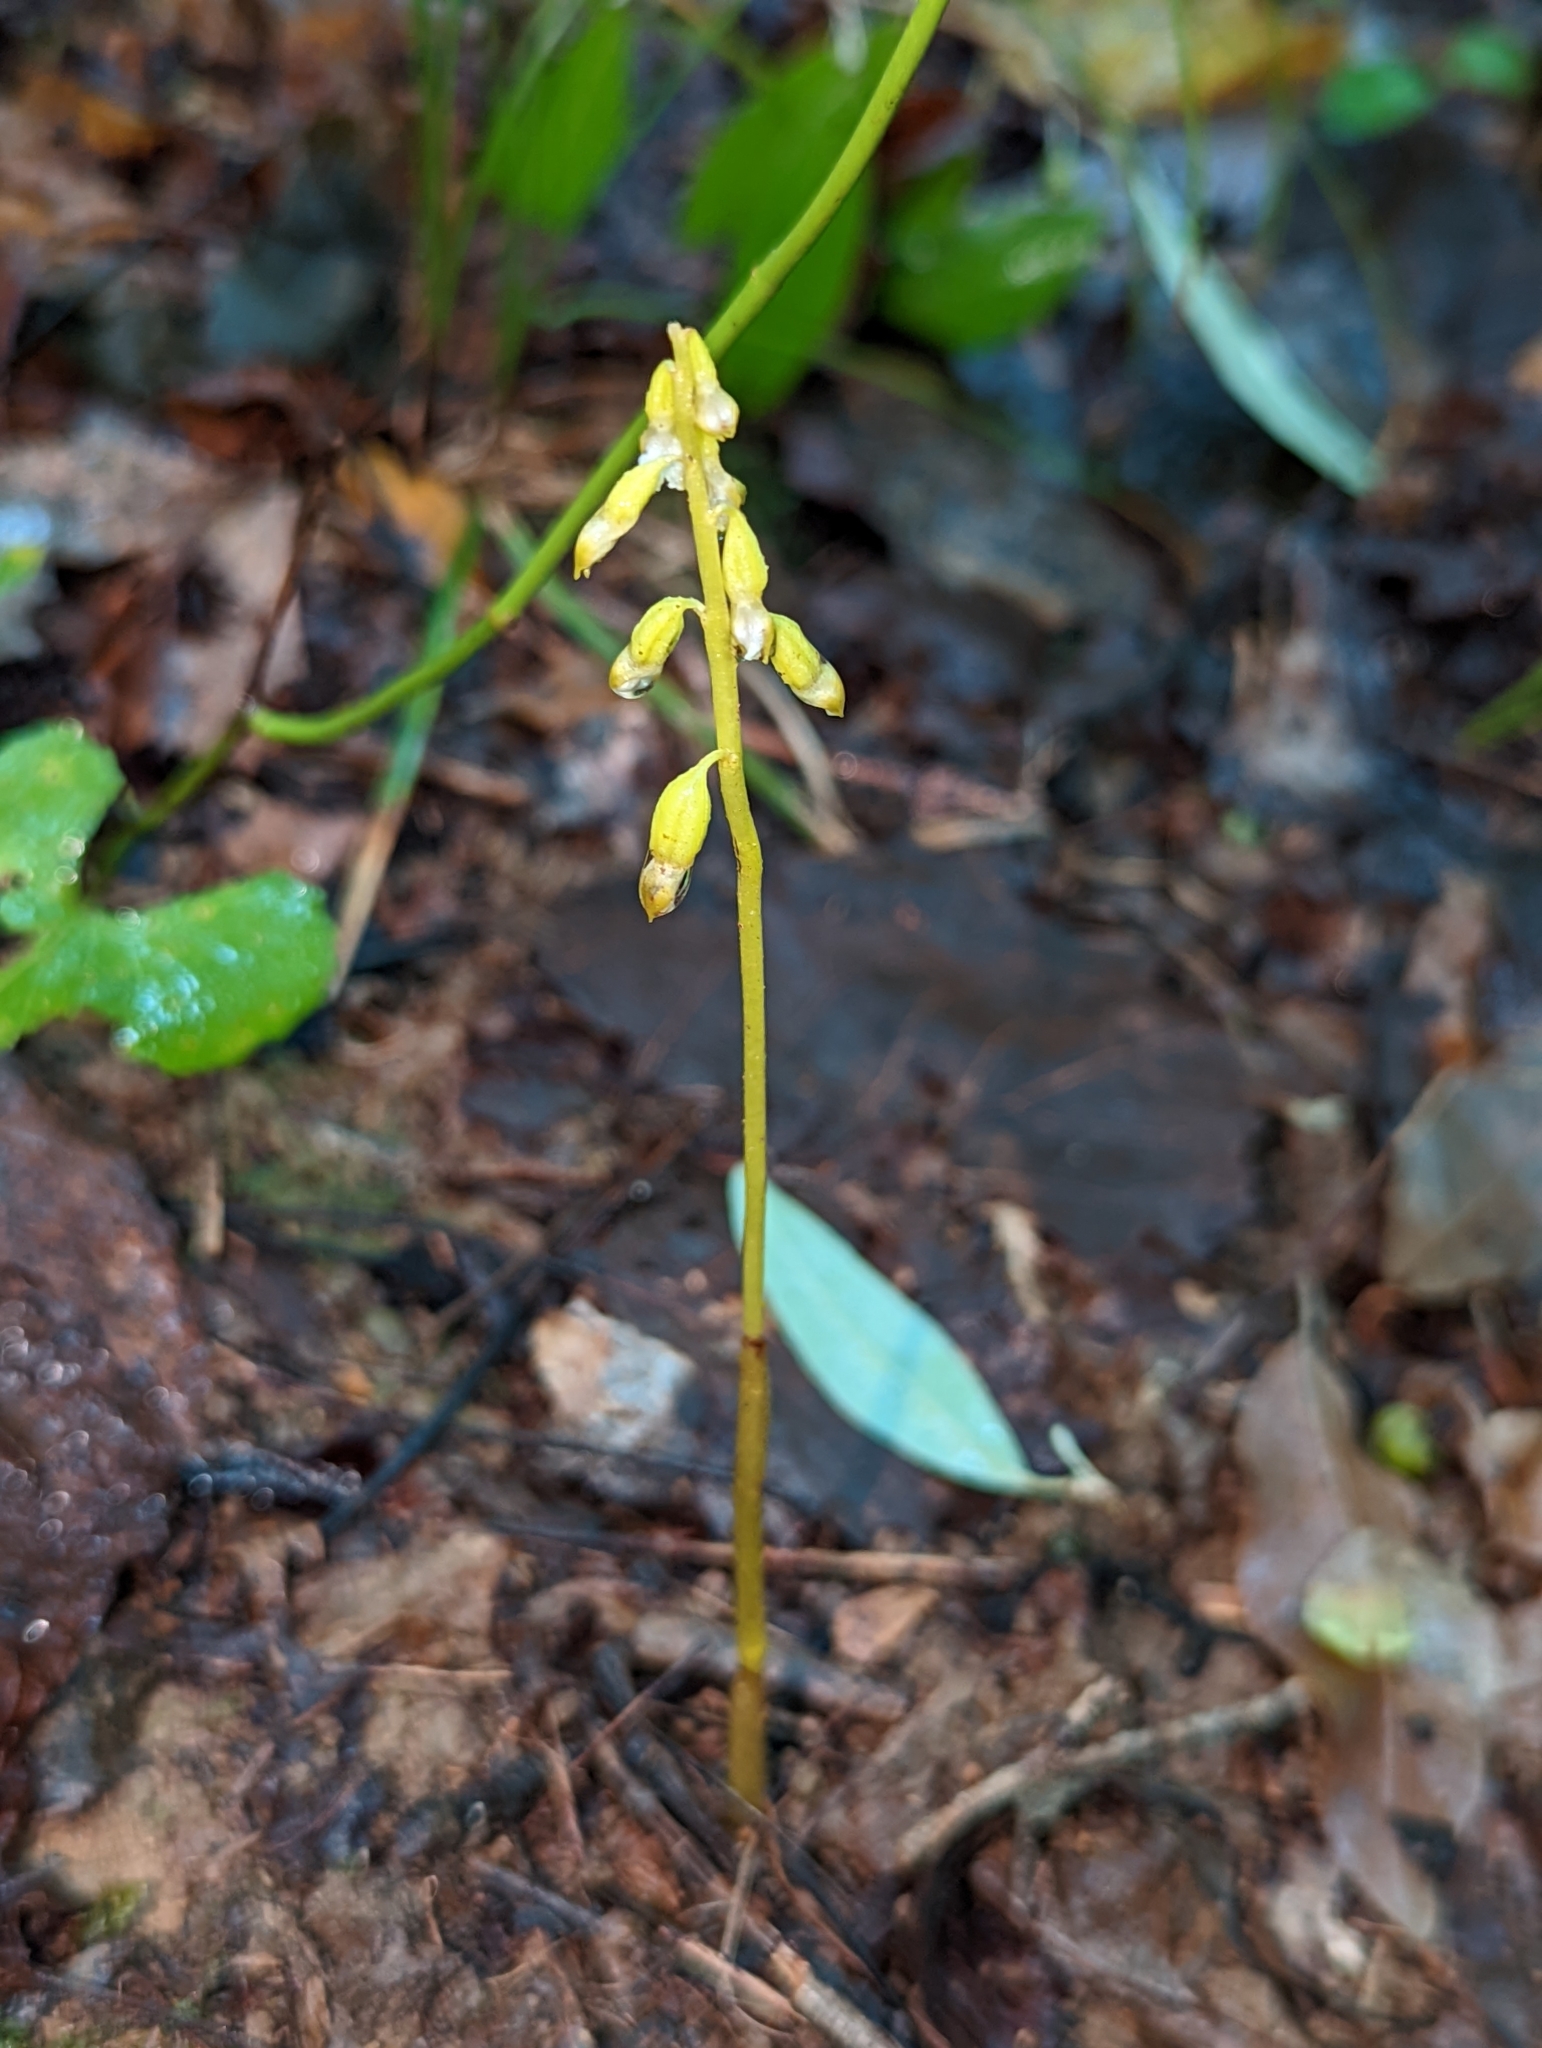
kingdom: Plantae
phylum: Tracheophyta
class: Liliopsida
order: Asparagales
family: Orchidaceae
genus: Corallorhiza
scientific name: Corallorhiza odontorhiza
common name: Autumn coralroot
